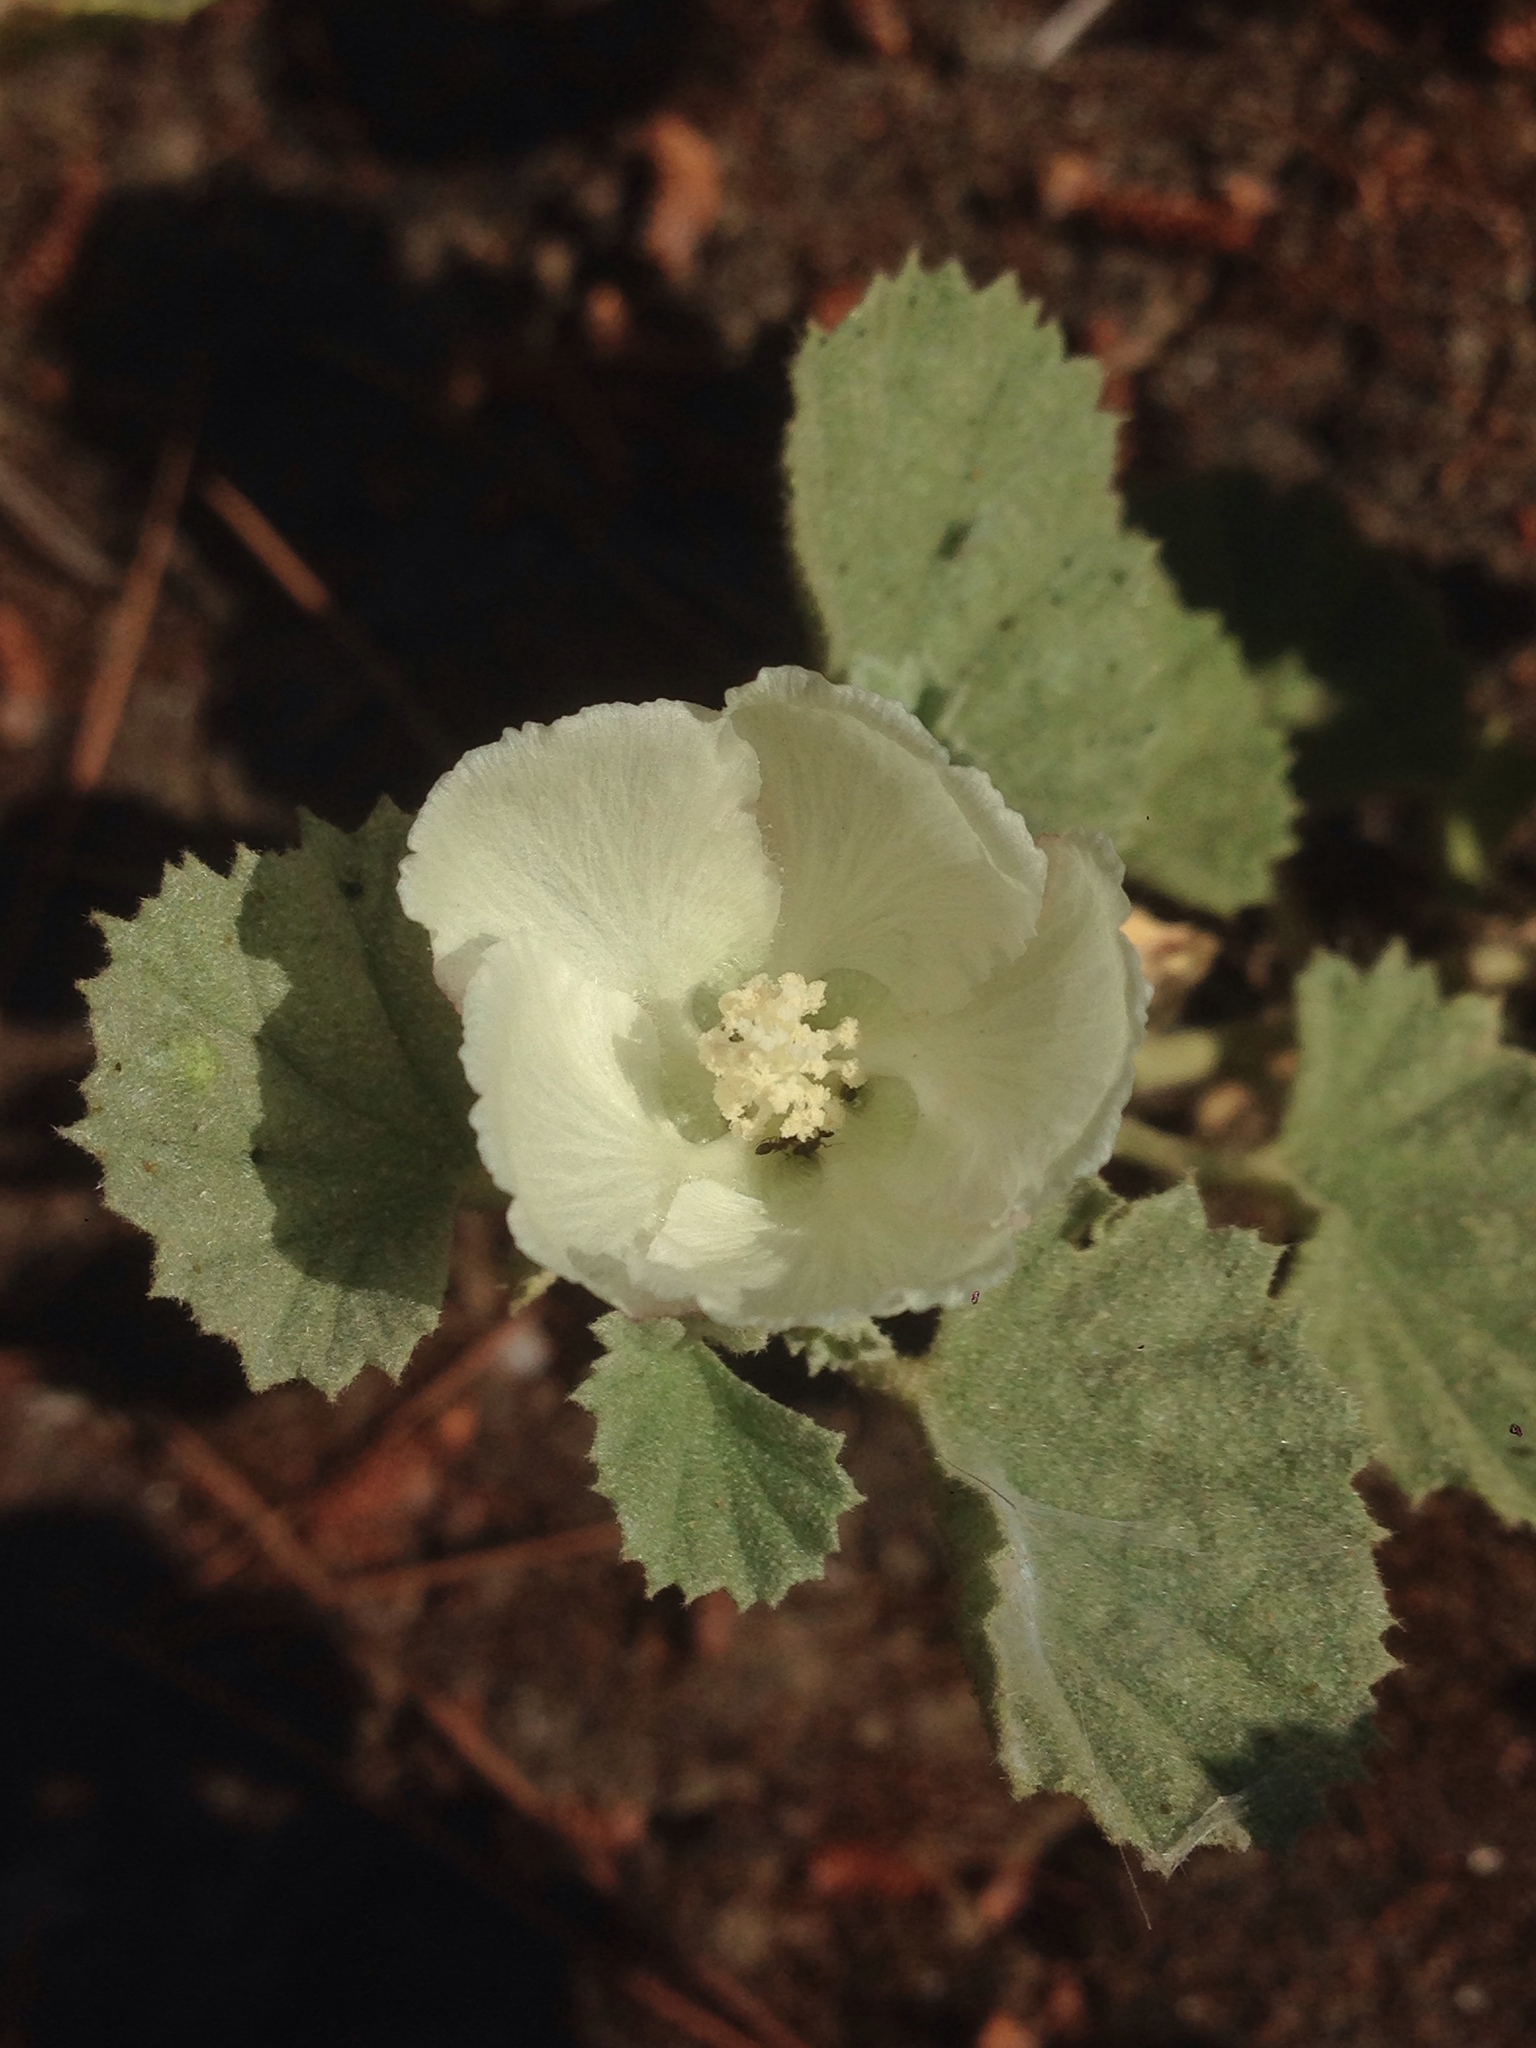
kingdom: Plantae
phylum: Tracheophyta
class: Magnoliopsida
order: Malvales
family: Malvaceae
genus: Malvella
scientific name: Malvella leprosa
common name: Alkali-mallow
